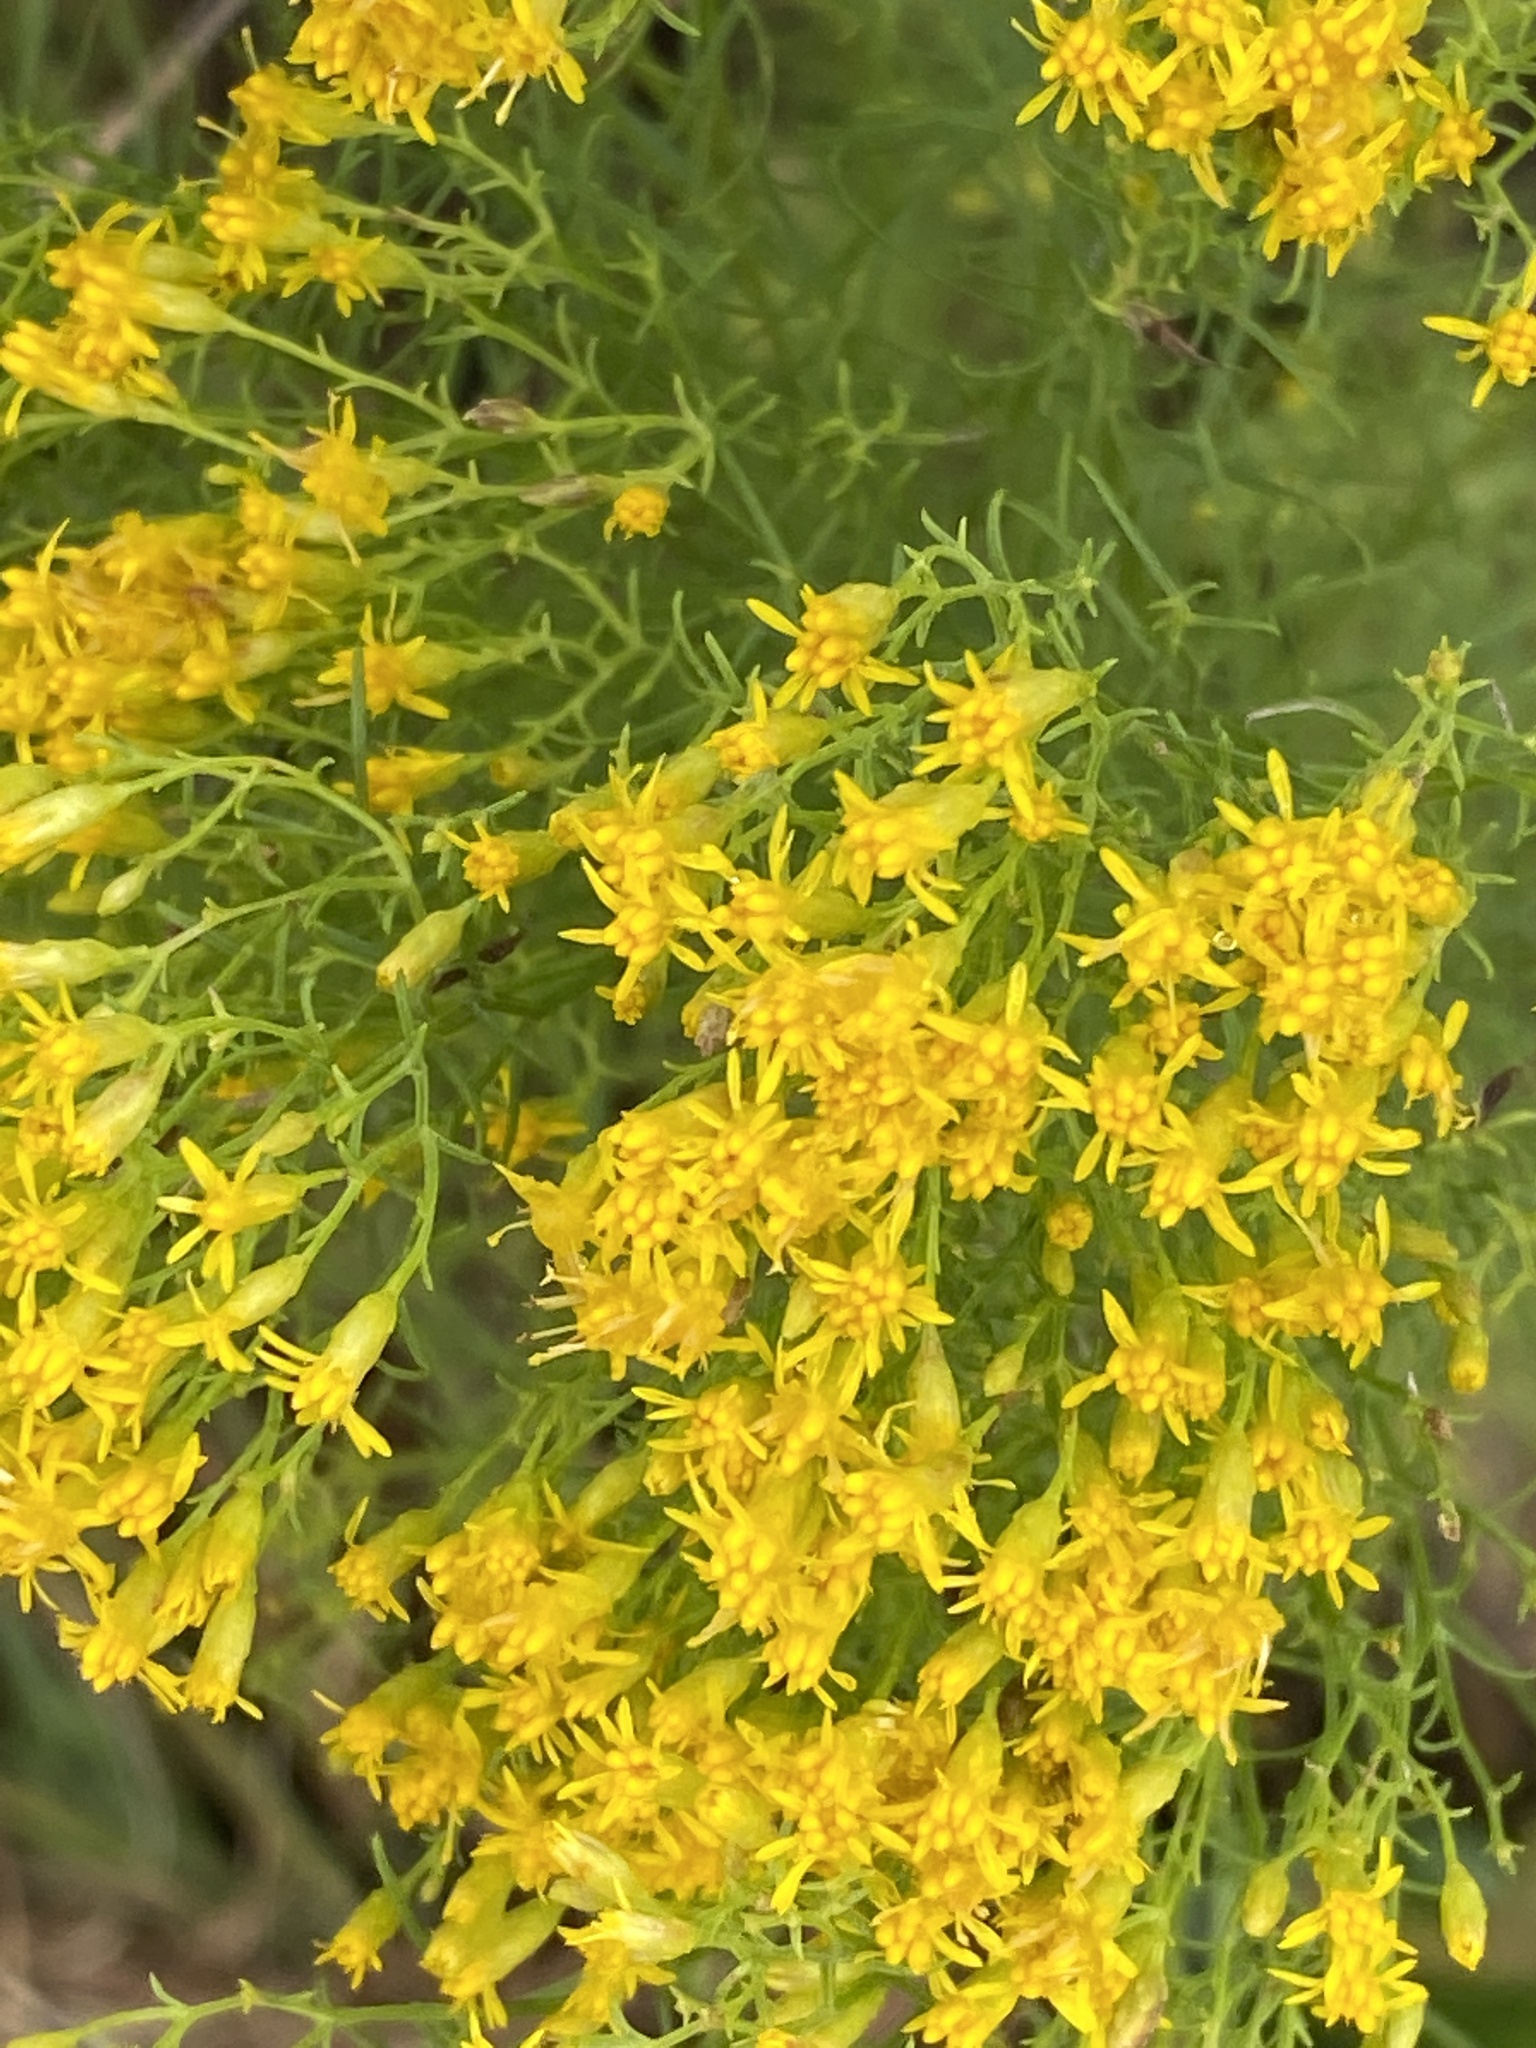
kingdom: Plantae
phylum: Tracheophyta
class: Magnoliopsida
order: Asterales
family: Asteraceae
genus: Euthamia
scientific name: Euthamia caroliniana
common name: Coastal plain goldentop
